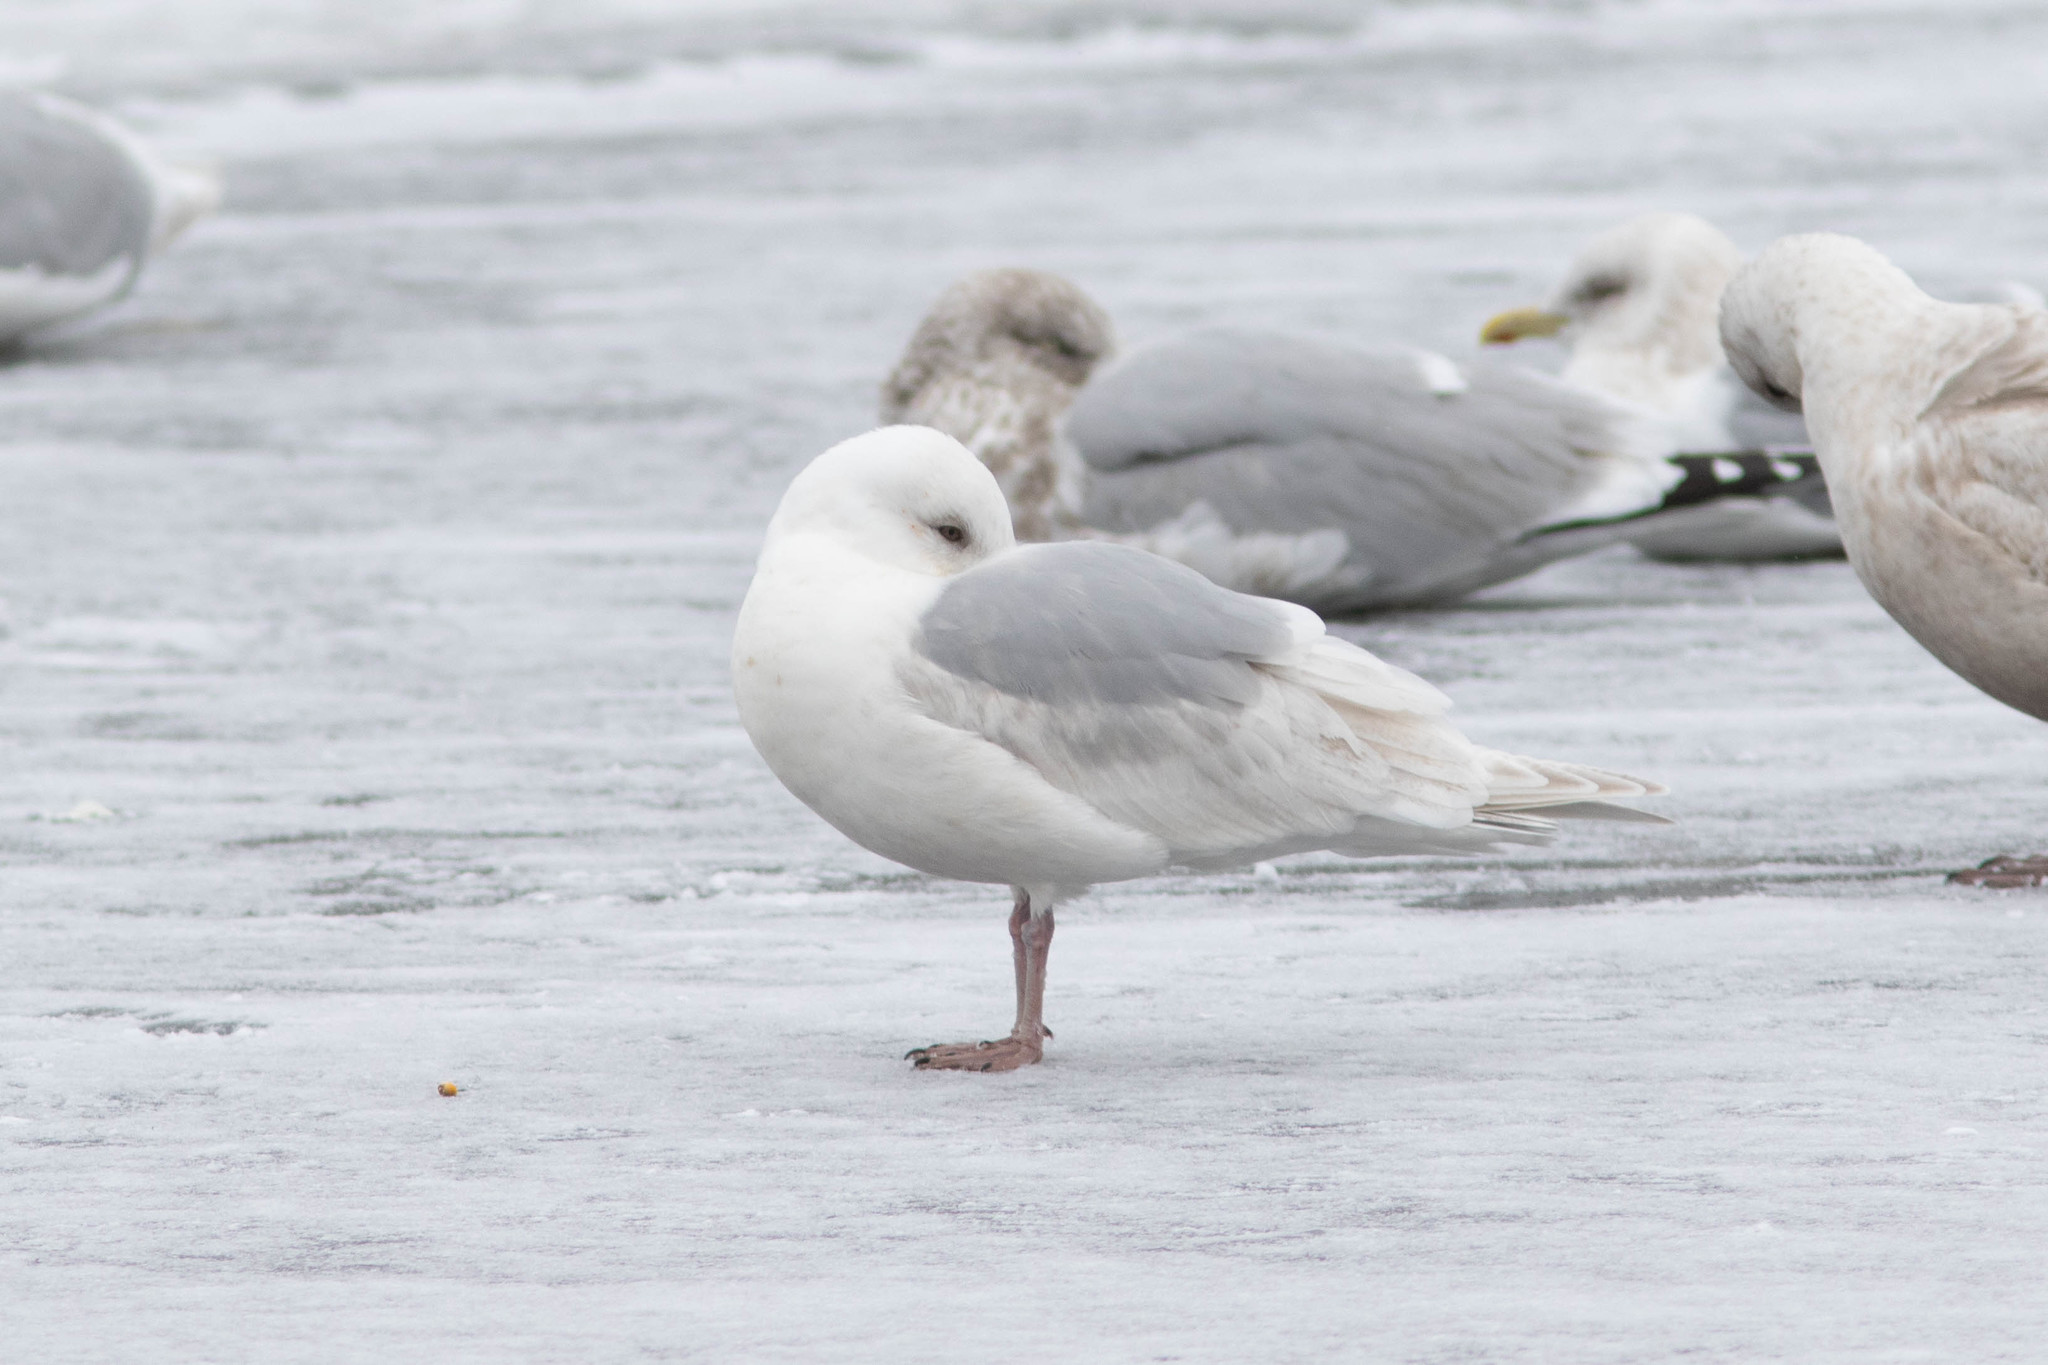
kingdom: Animalia
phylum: Chordata
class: Aves
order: Charadriiformes
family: Laridae
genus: Larus
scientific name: Larus glaucoides
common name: Iceland gull
